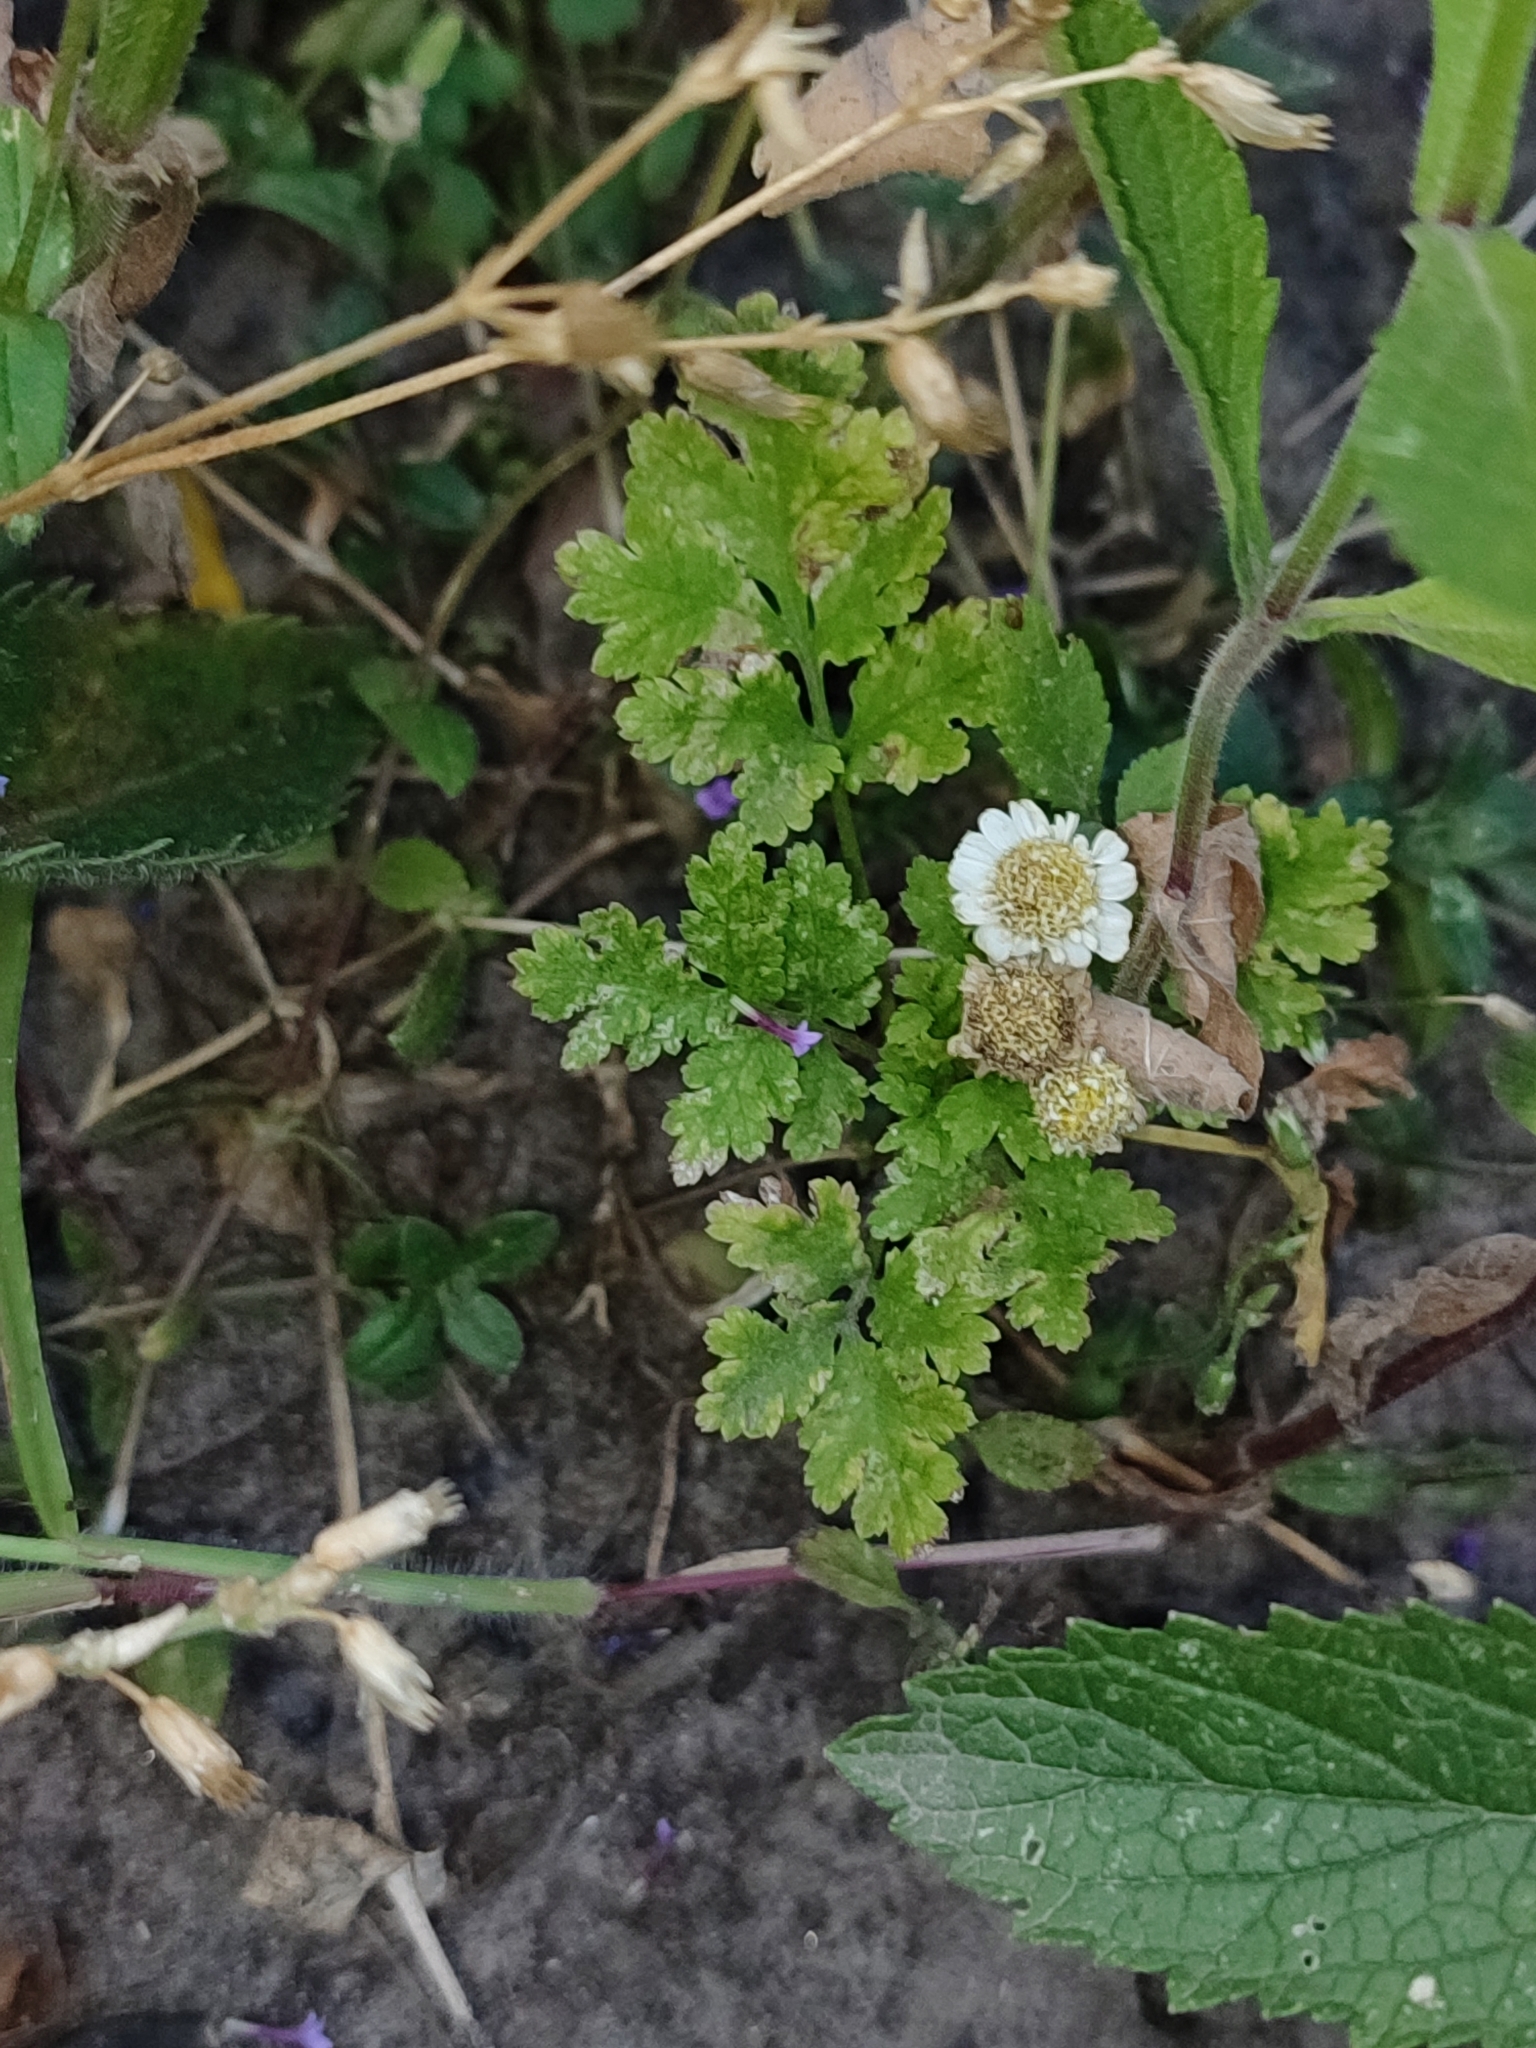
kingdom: Plantae
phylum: Tracheophyta
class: Magnoliopsida
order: Asterales
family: Asteraceae
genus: Tanacetum
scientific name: Tanacetum parthenium
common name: Feverfew
